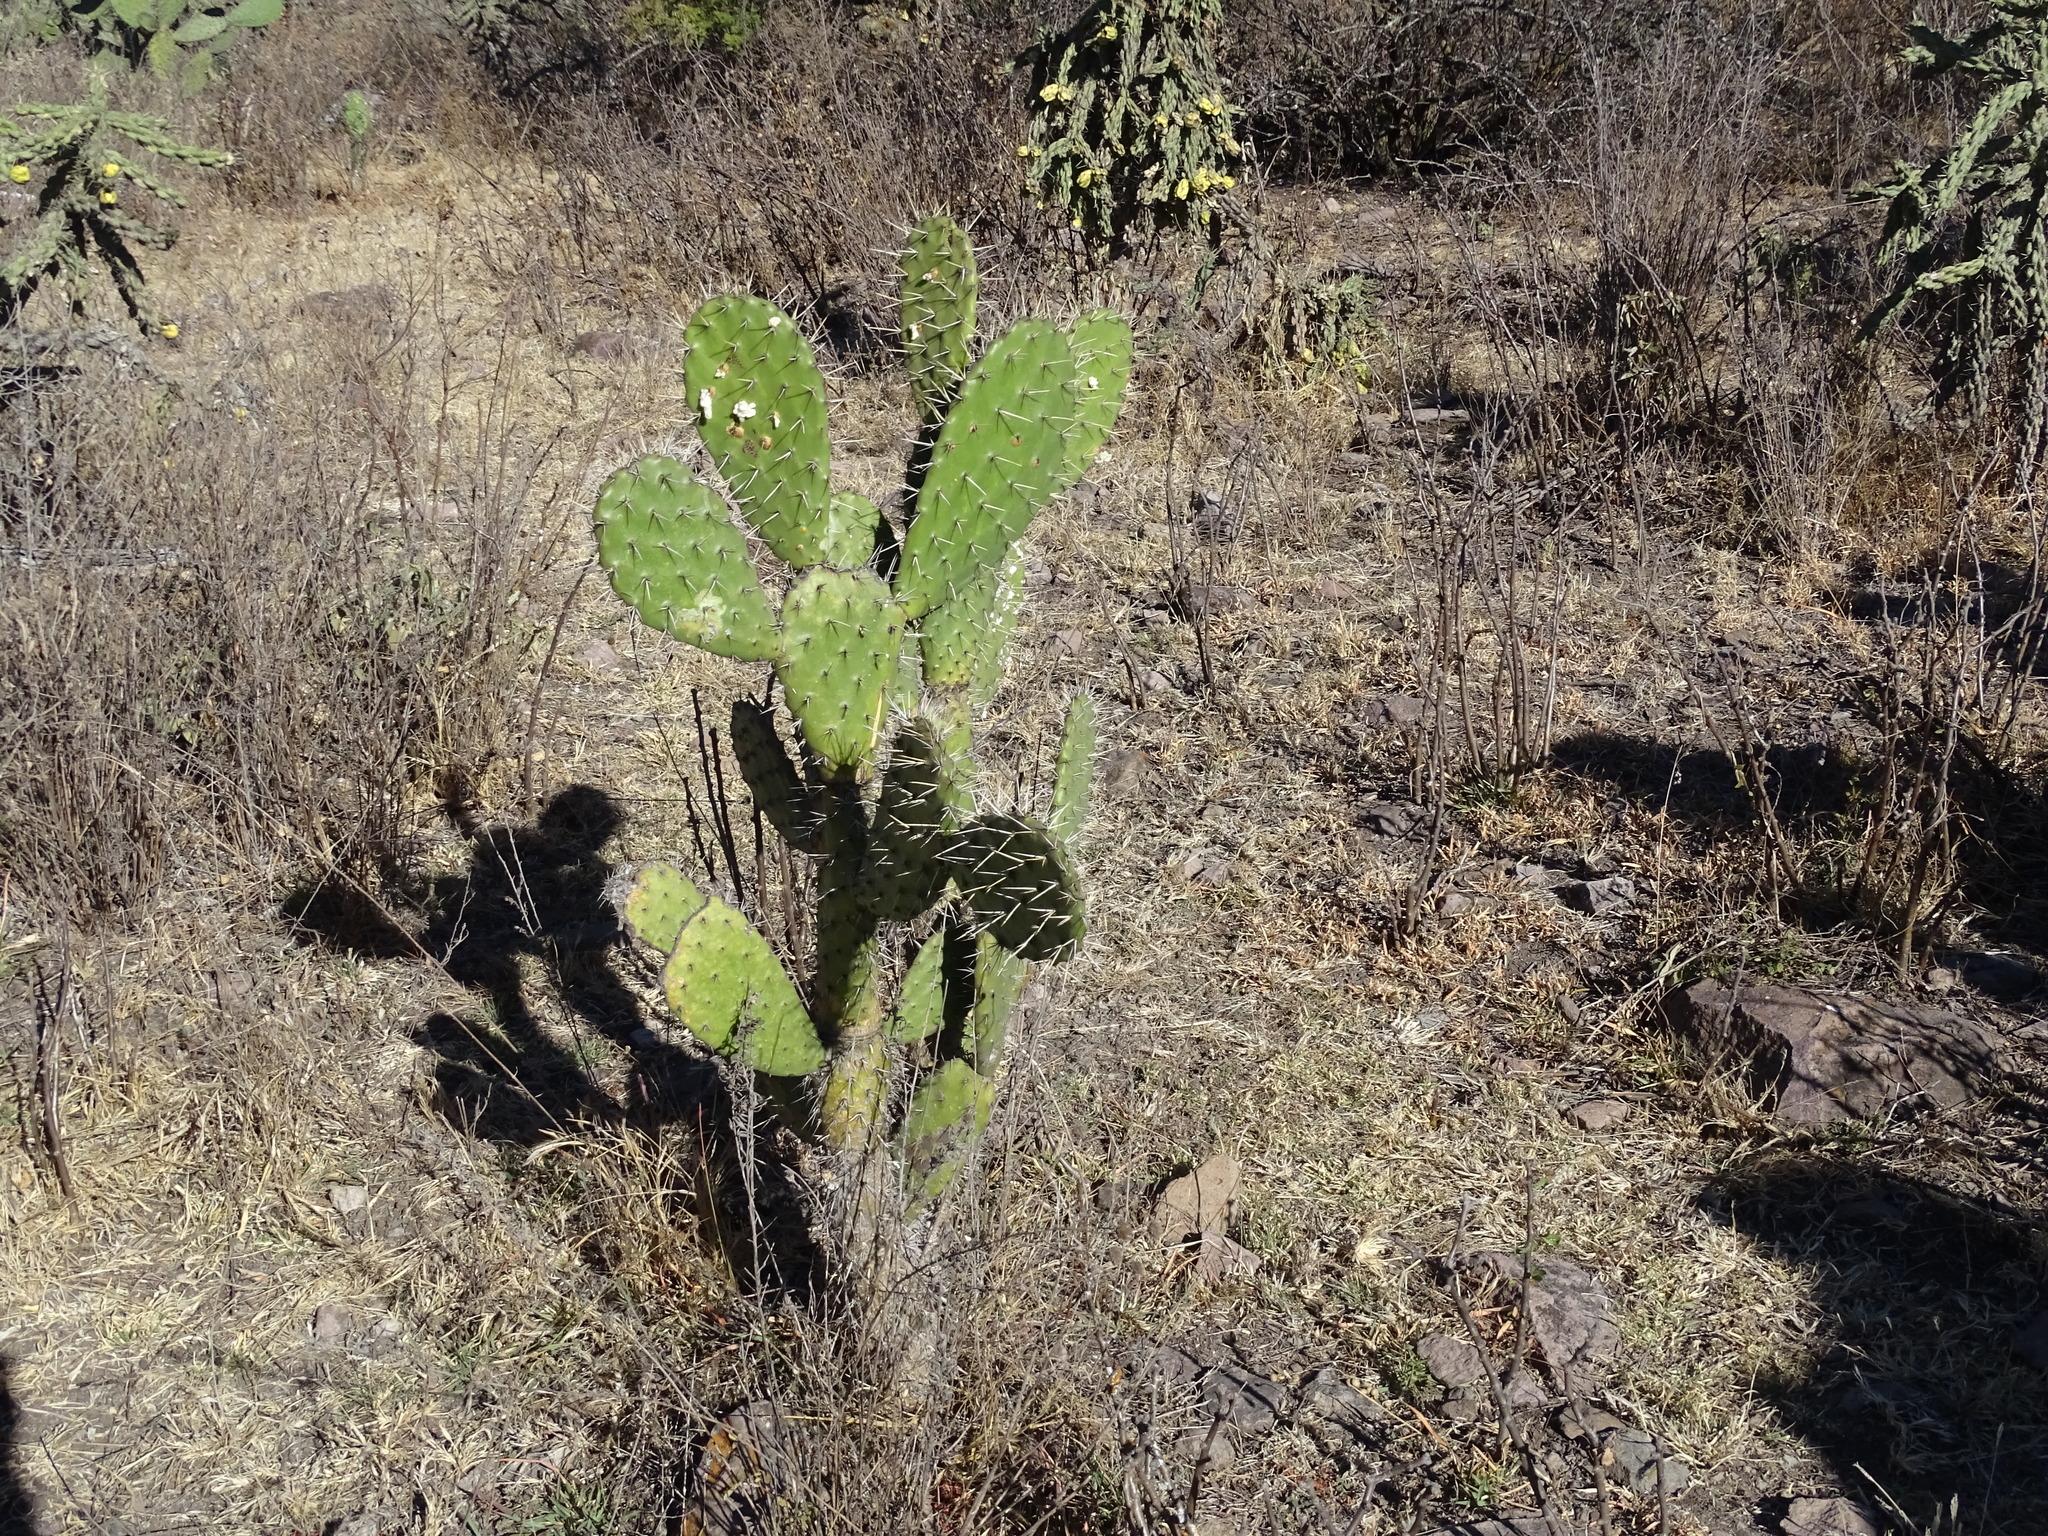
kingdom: Plantae
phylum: Tracheophyta
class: Magnoliopsida
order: Caryophyllales
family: Cactaceae
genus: Opuntia
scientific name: Opuntia lasiacantha
